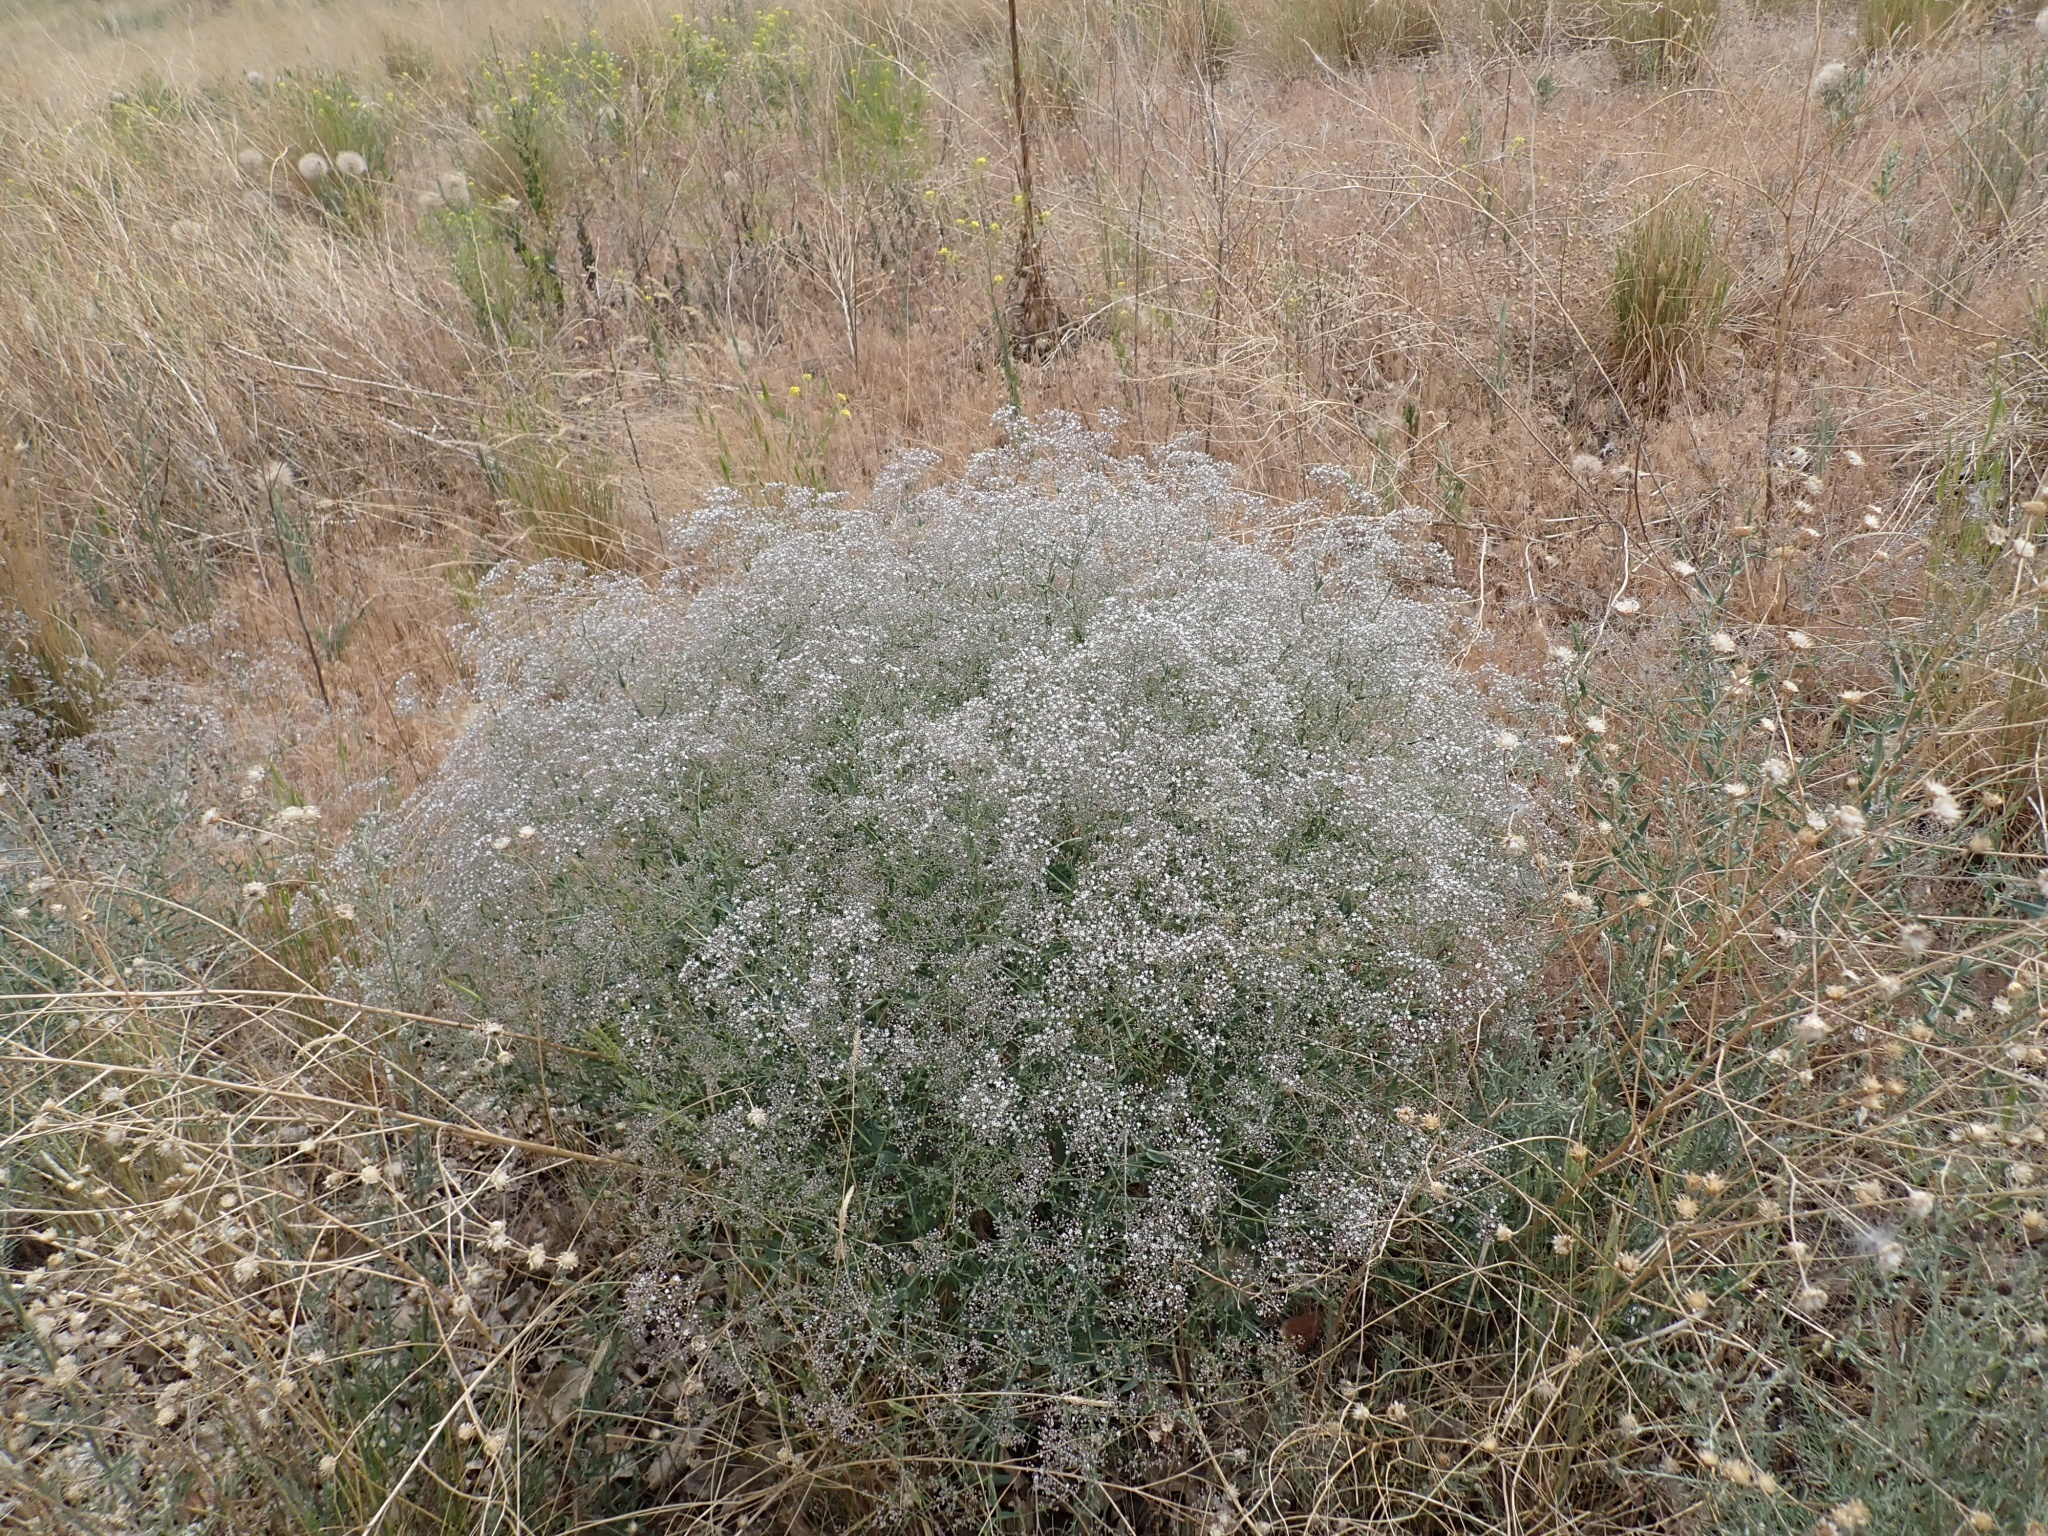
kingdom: Plantae
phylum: Tracheophyta
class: Magnoliopsida
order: Caryophyllales
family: Caryophyllaceae
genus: Gypsophila
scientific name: Gypsophila paniculata
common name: Baby's-breath
